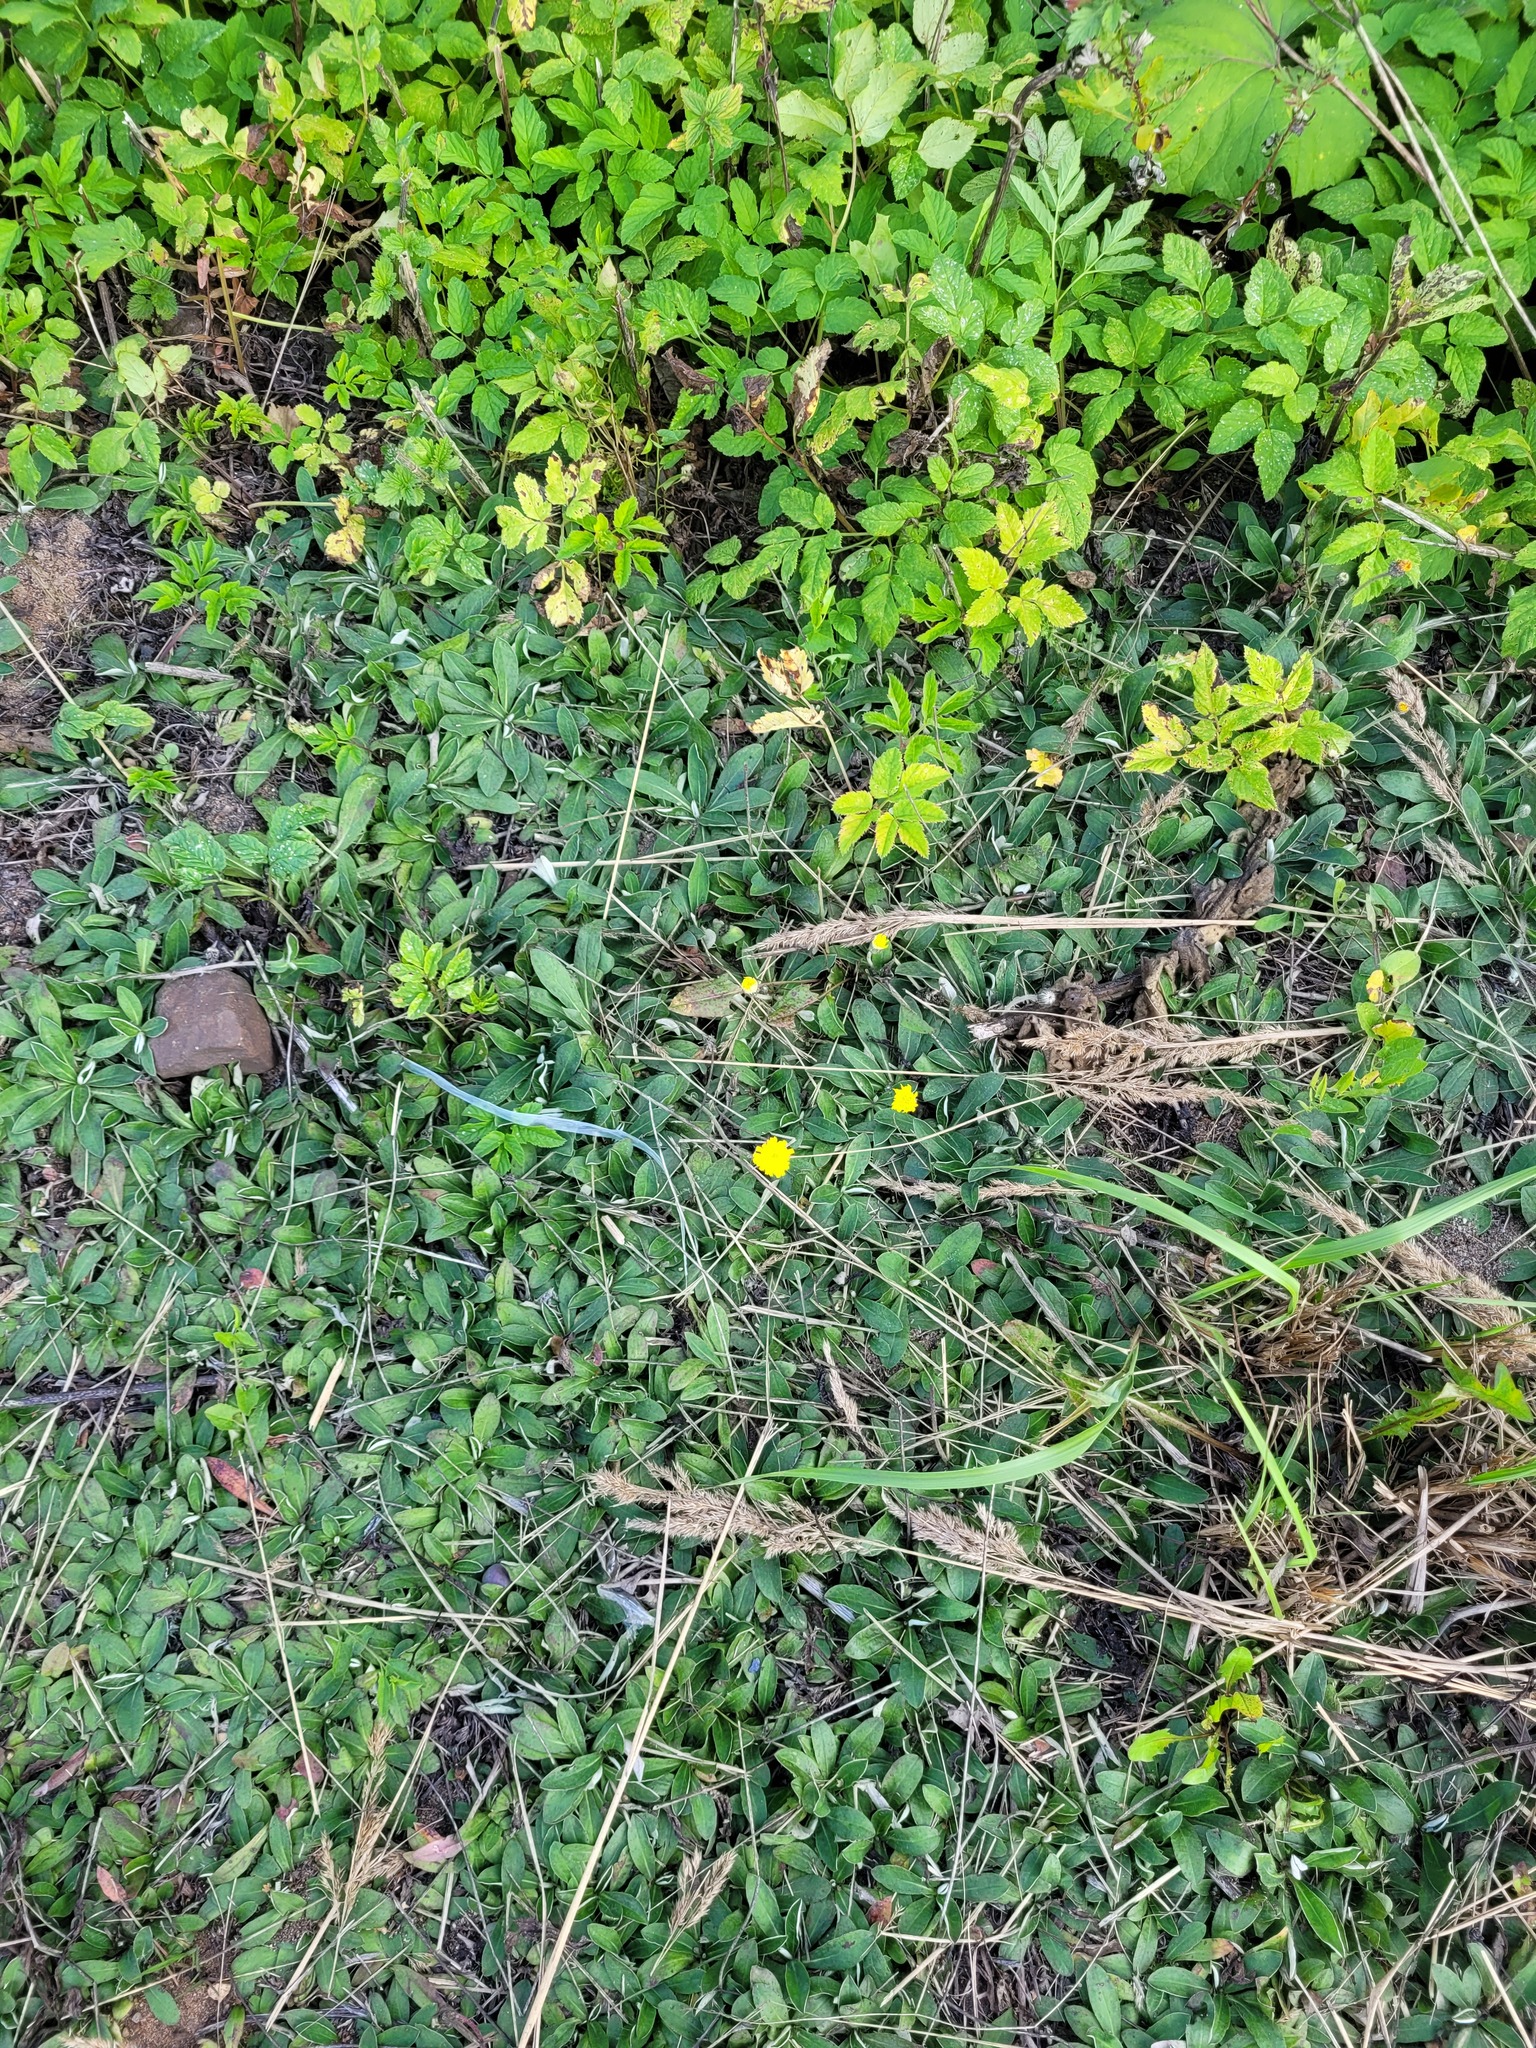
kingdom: Plantae
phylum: Tracheophyta
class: Magnoliopsida
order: Asterales
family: Asteraceae
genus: Pilosella
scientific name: Pilosella officinarum
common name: Mouse-ear hawkweed
